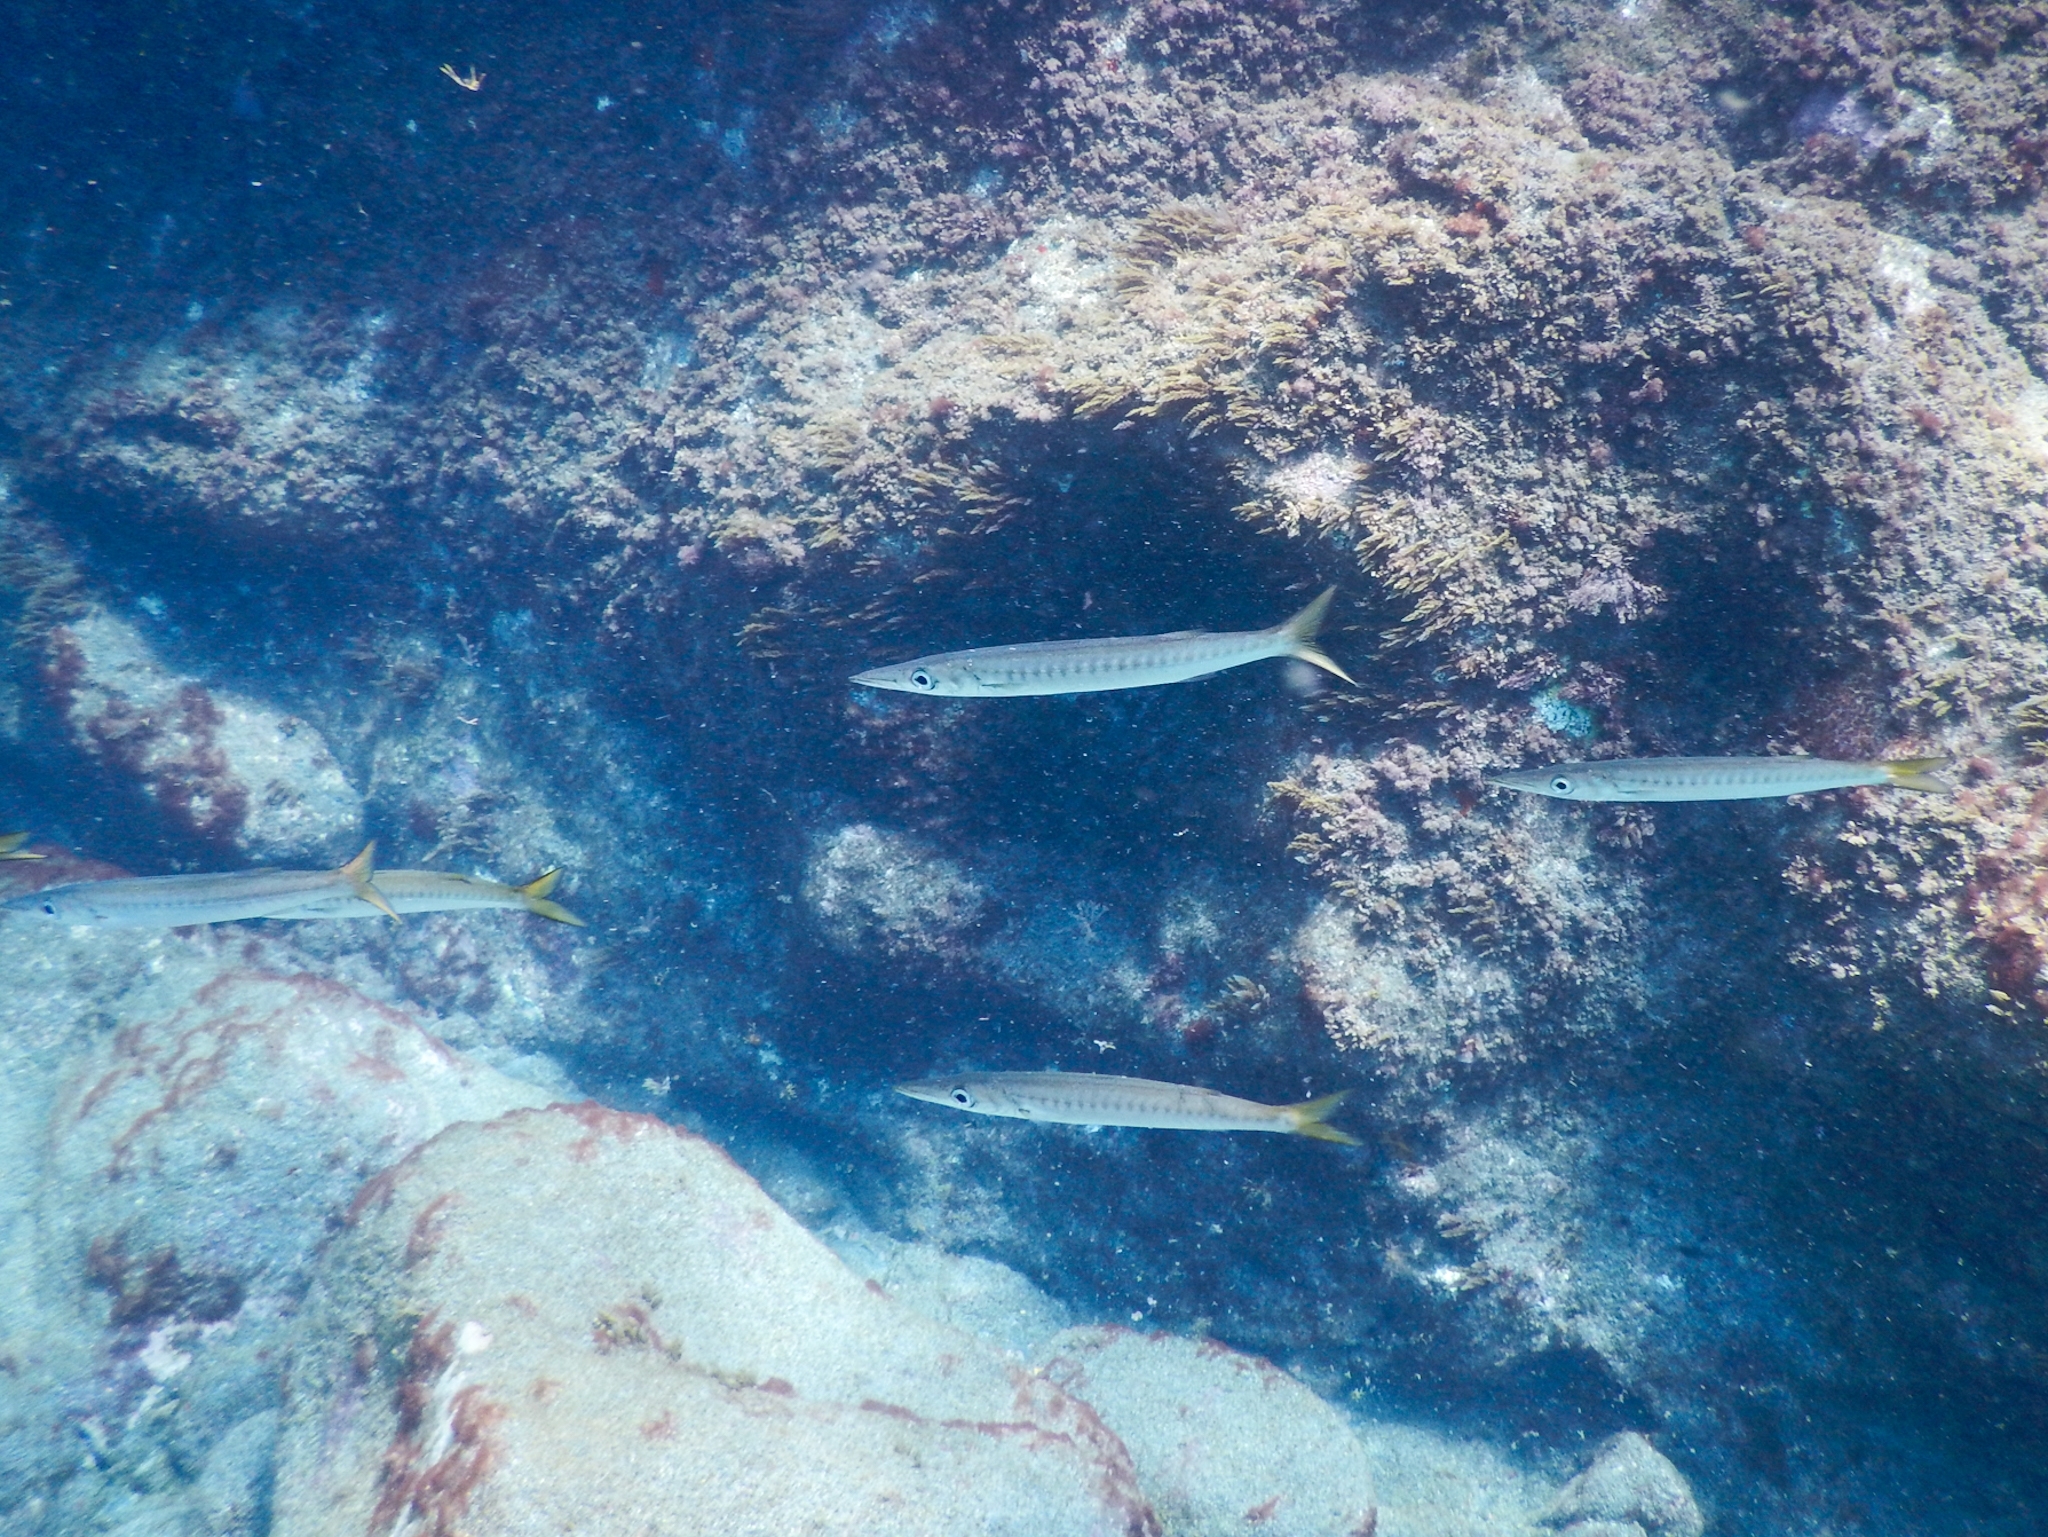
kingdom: Animalia
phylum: Chordata
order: Perciformes
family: Sphyraenidae
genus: Sphyraena
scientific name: Sphyraena viridensis
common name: Yellowmouth barracuda
